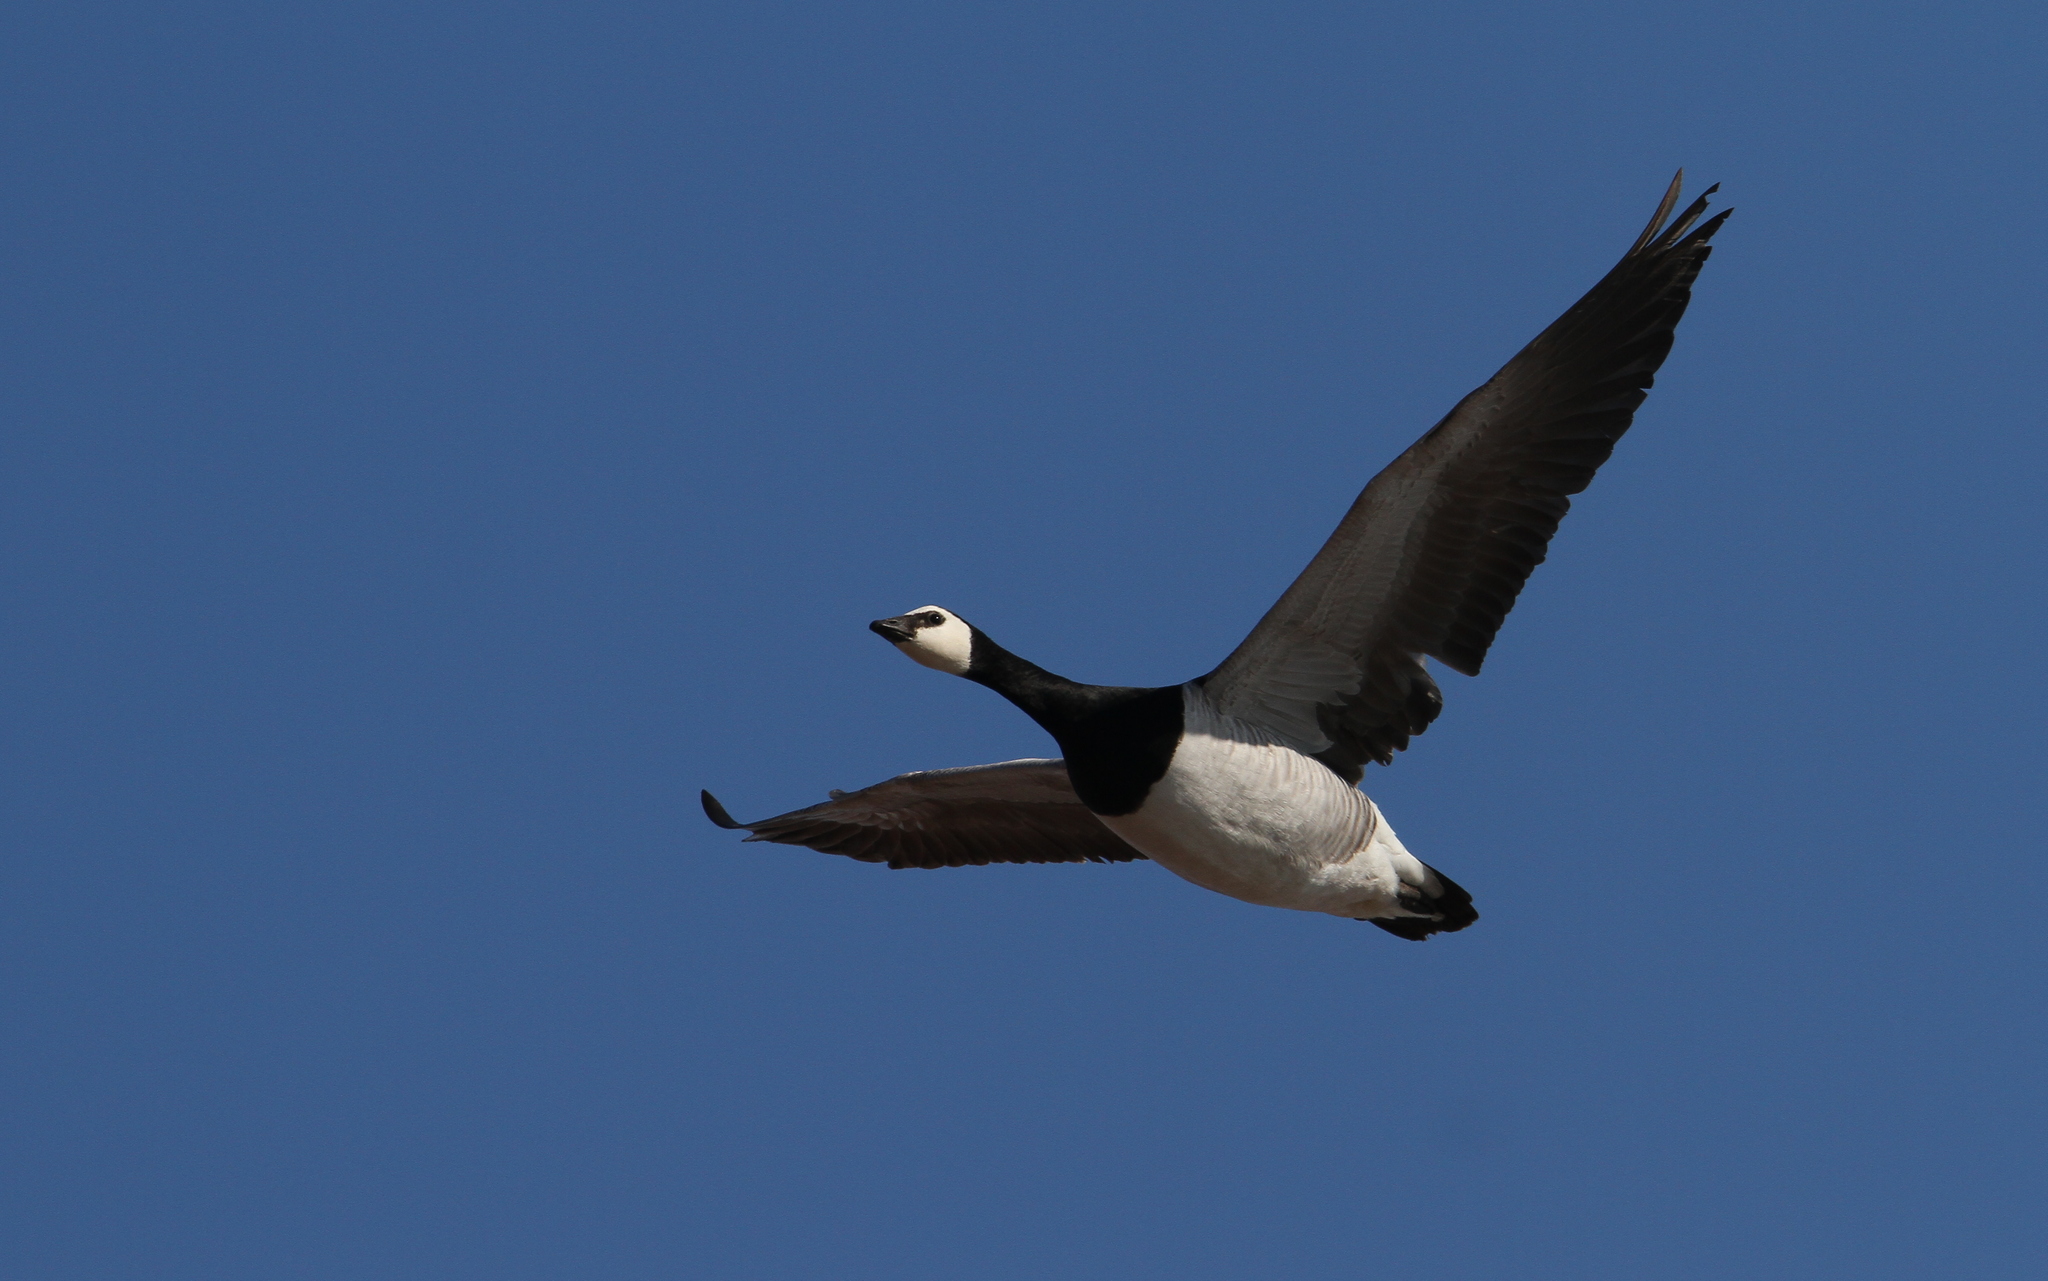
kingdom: Animalia
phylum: Chordata
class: Aves
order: Anseriformes
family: Anatidae
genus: Branta
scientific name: Branta leucopsis
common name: Barnacle goose
